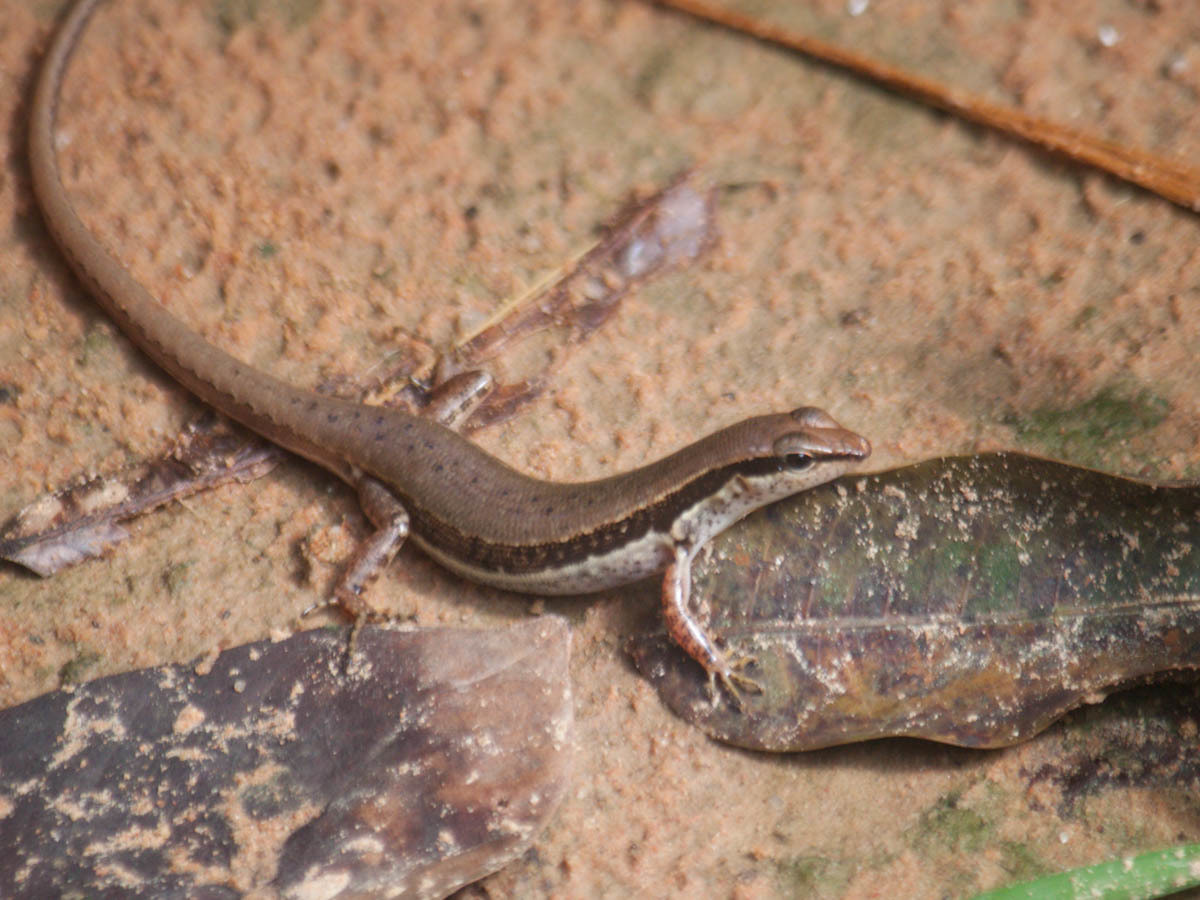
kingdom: Animalia
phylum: Chordata
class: Squamata
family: Scincidae
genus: Sphenomorphus
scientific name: Sphenomorphus maculatus
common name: Maculated forest skink
